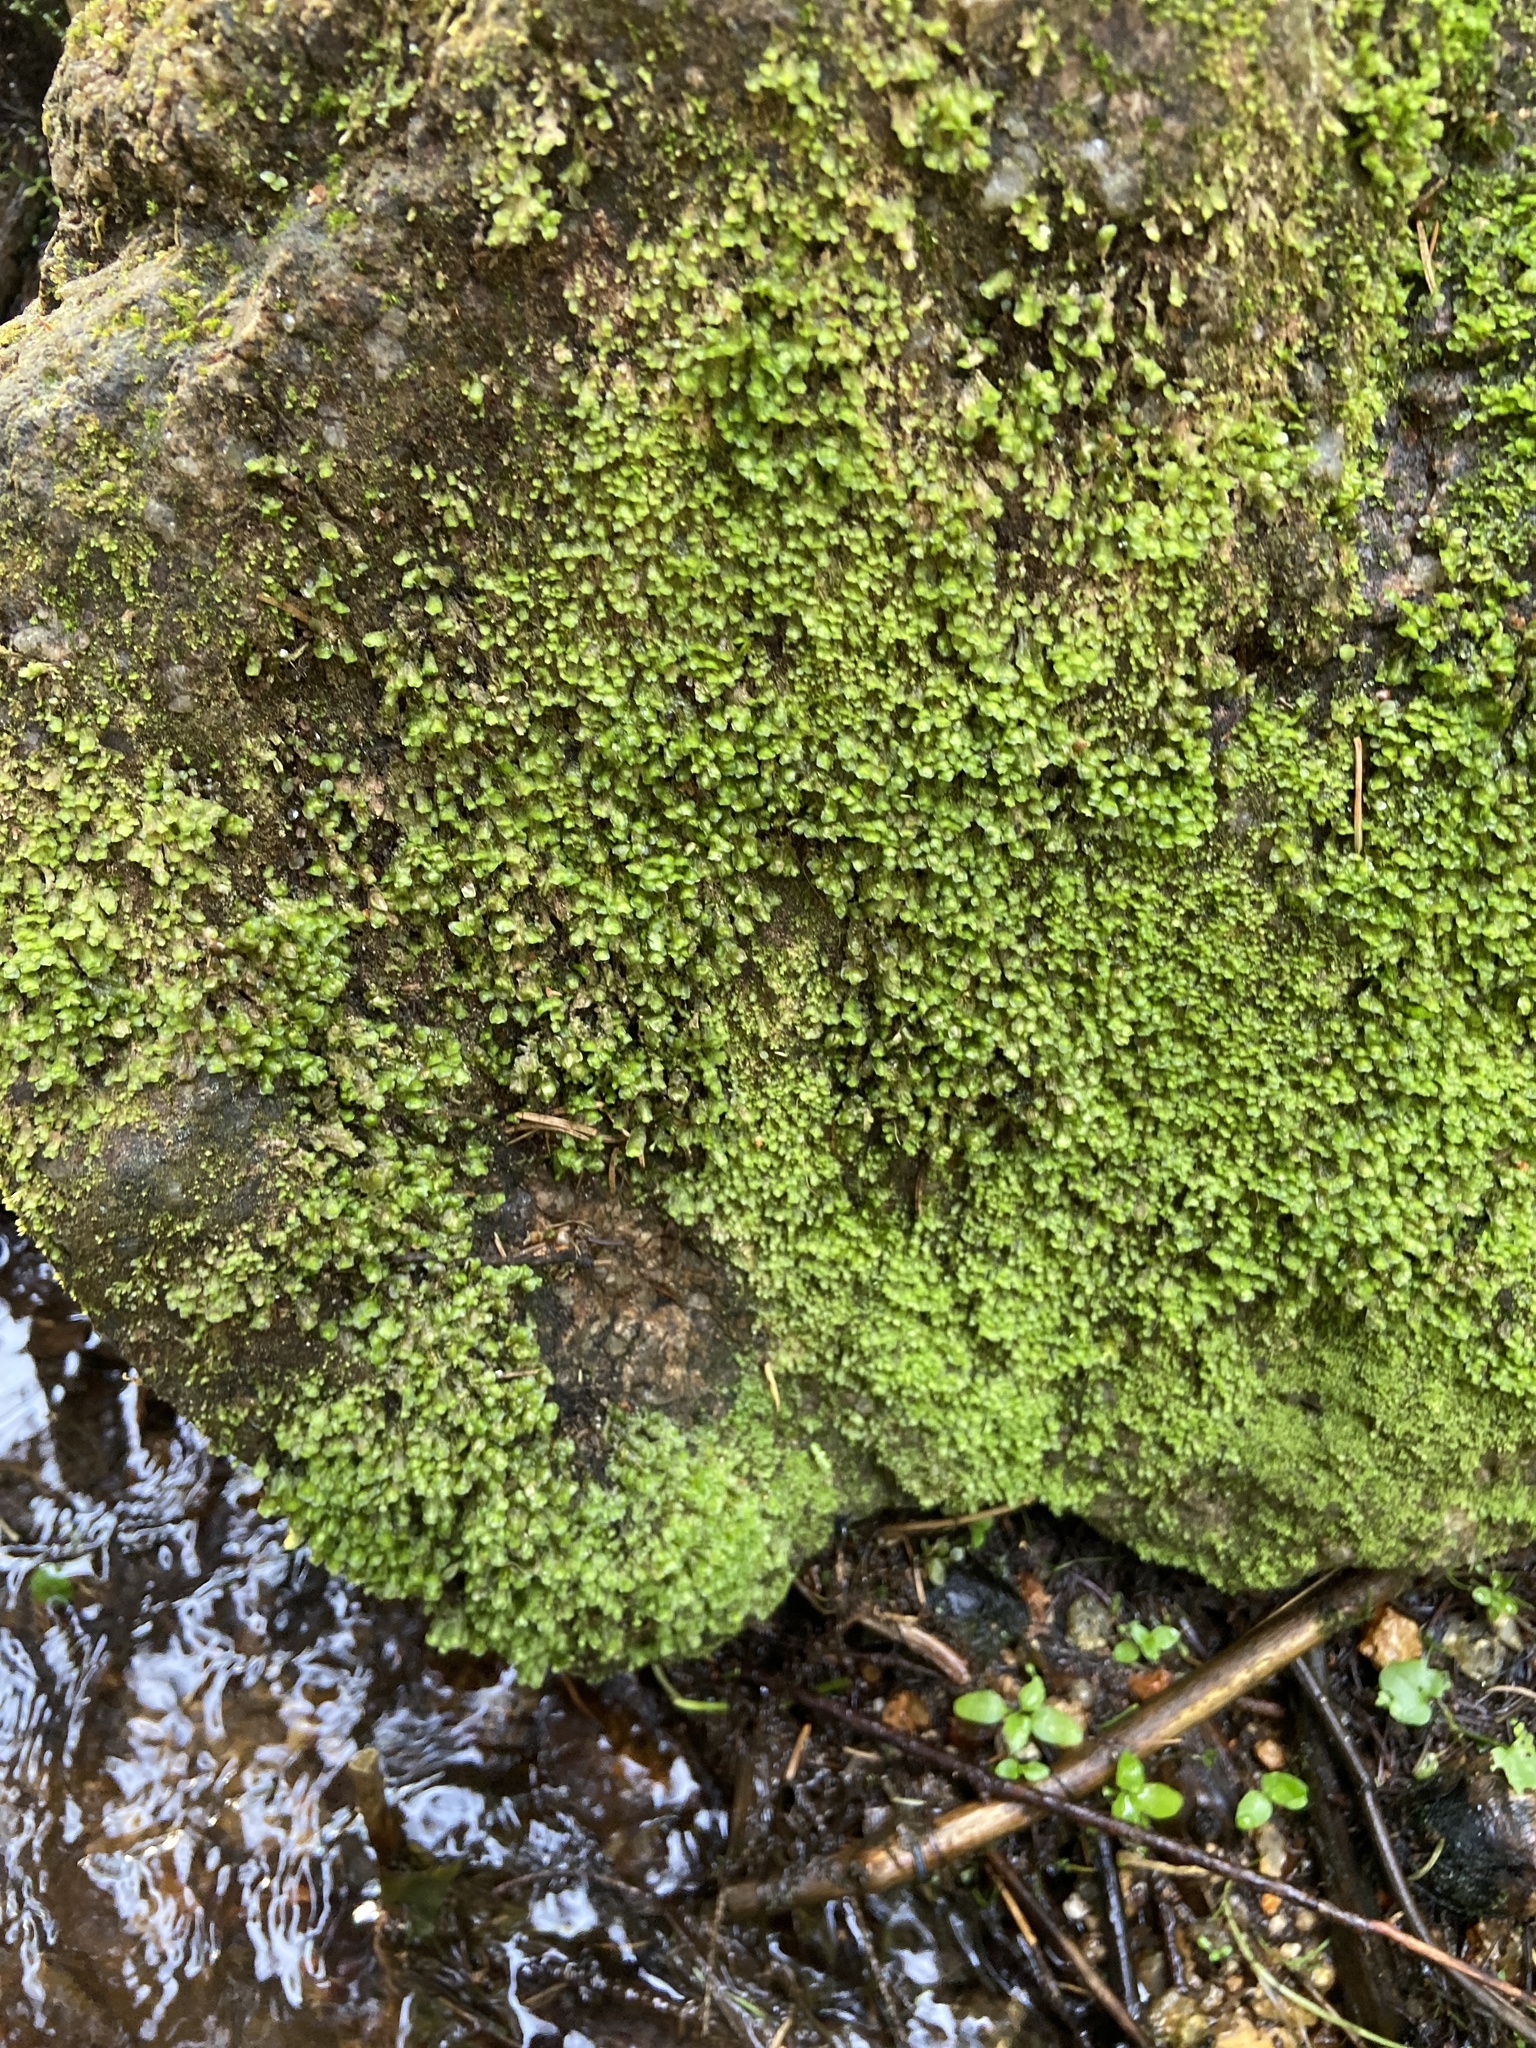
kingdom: Plantae
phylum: Marchantiophyta
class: Jungermanniopsida
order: Jungermanniales
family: Scapaniaceae
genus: Scapania
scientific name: Scapania undulata
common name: Water earwort
